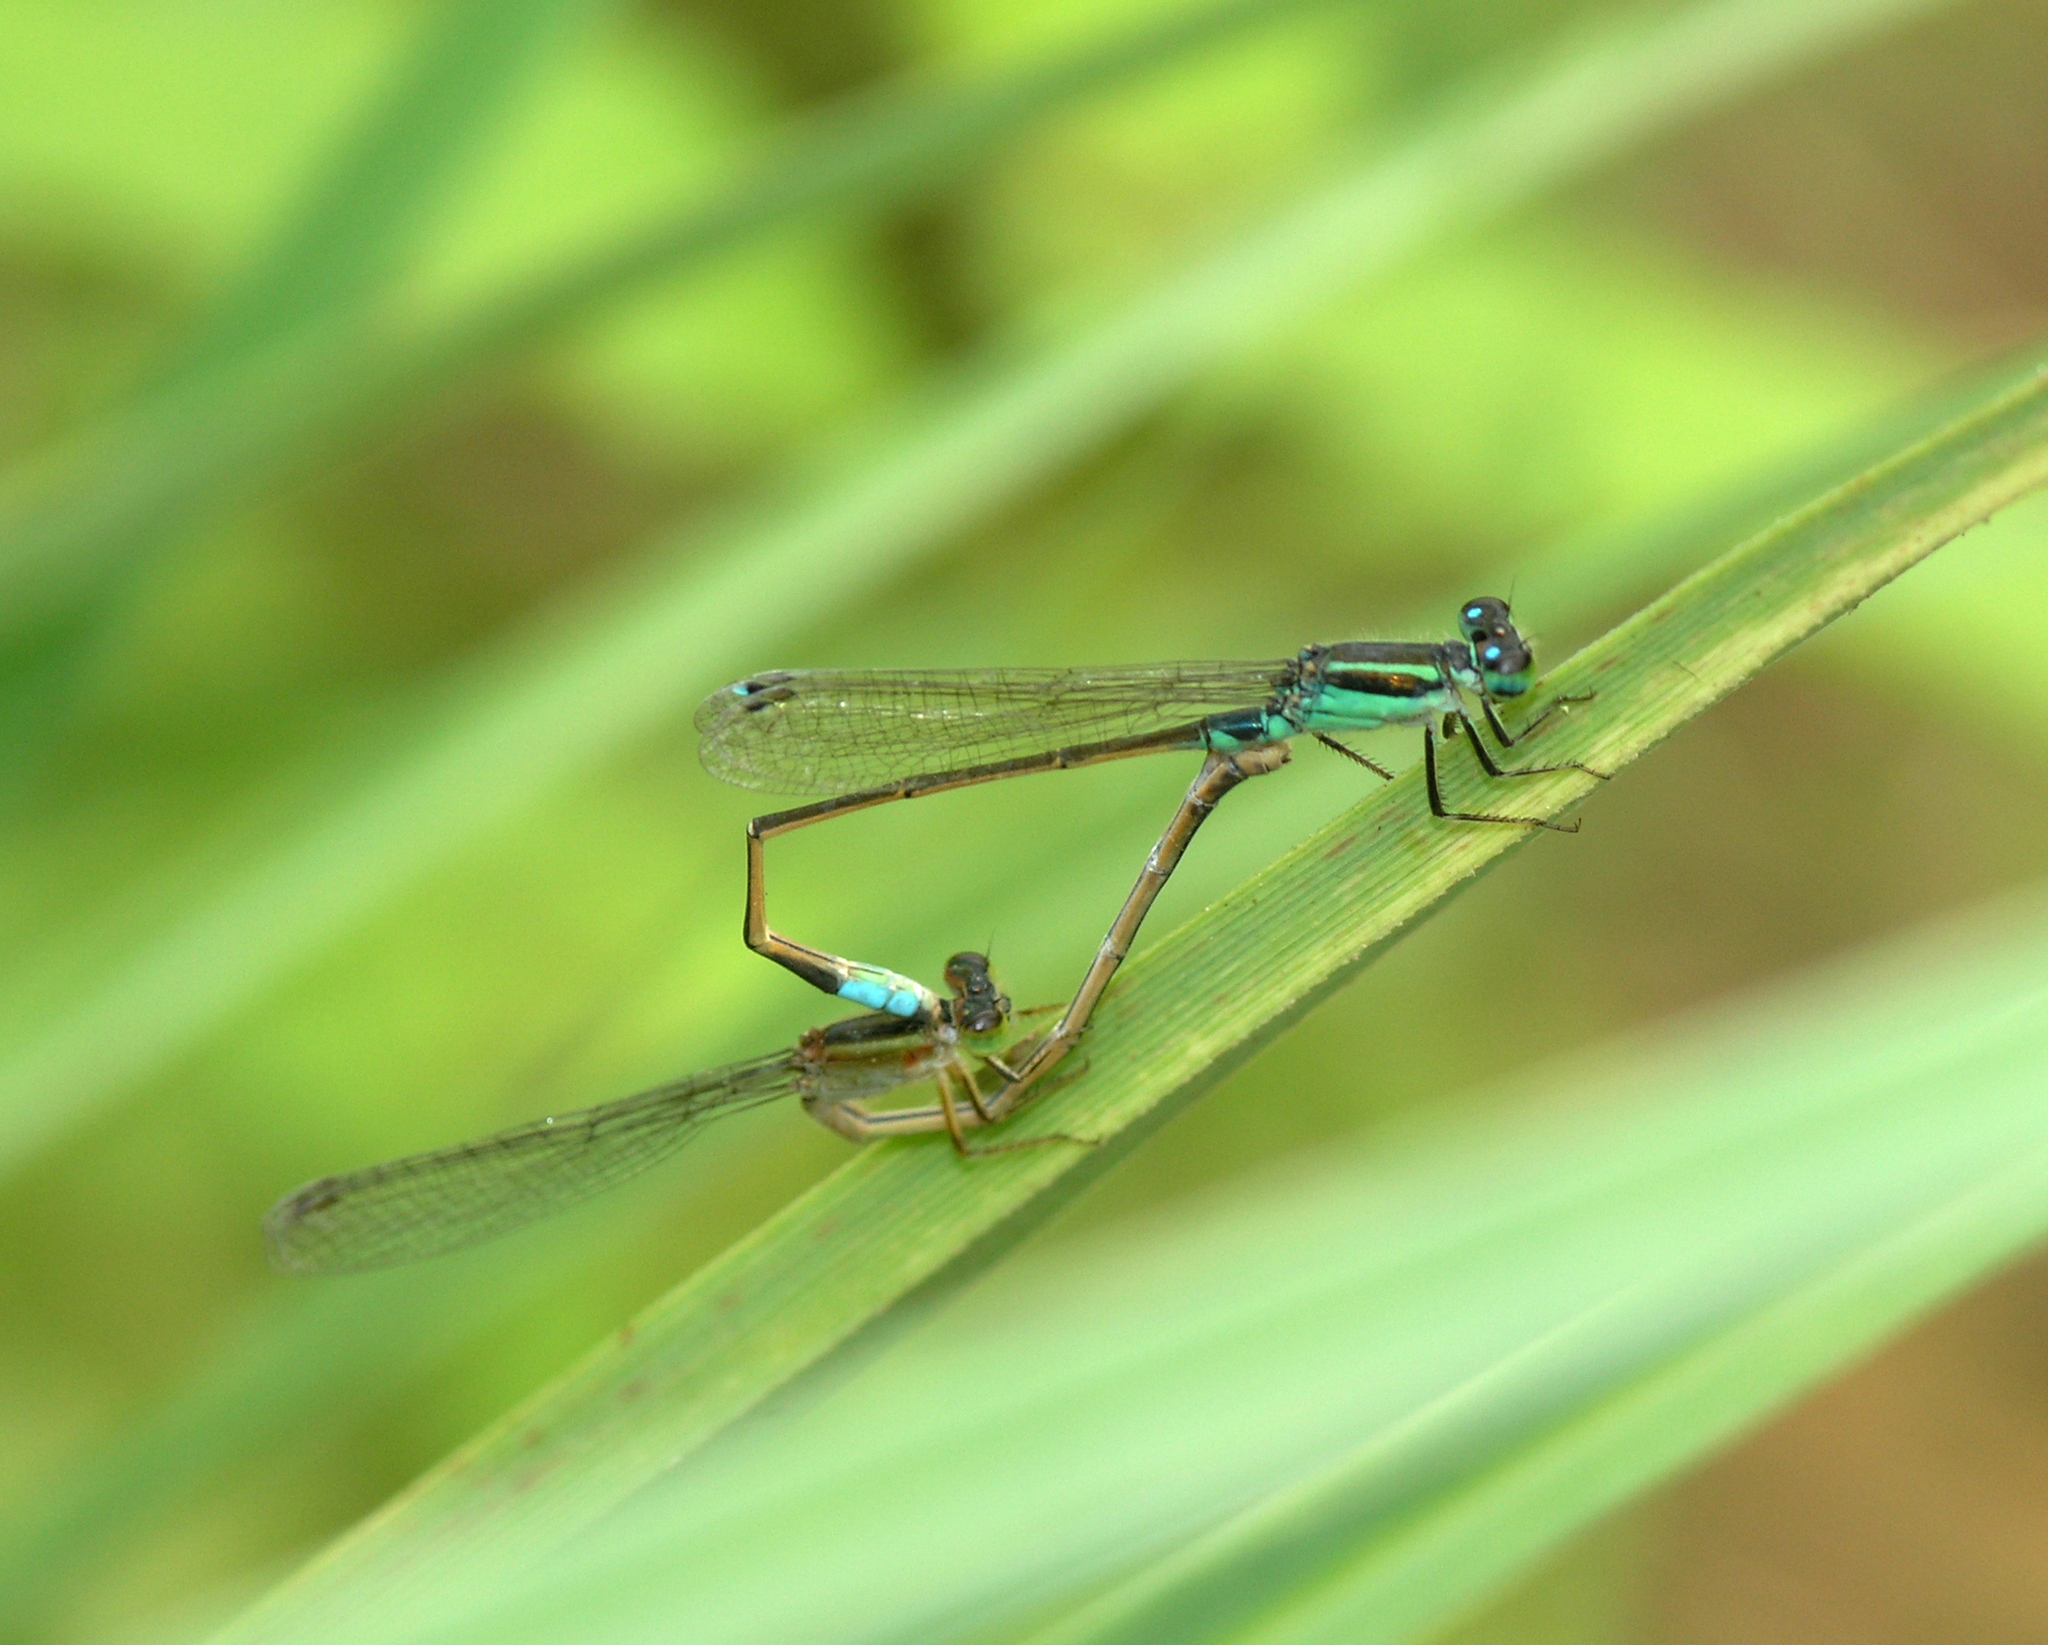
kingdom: Animalia
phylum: Arthropoda
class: Insecta
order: Odonata
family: Coenagrionidae
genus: Ischnura
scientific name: Ischnura senegalensis
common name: Tropical bluetail
